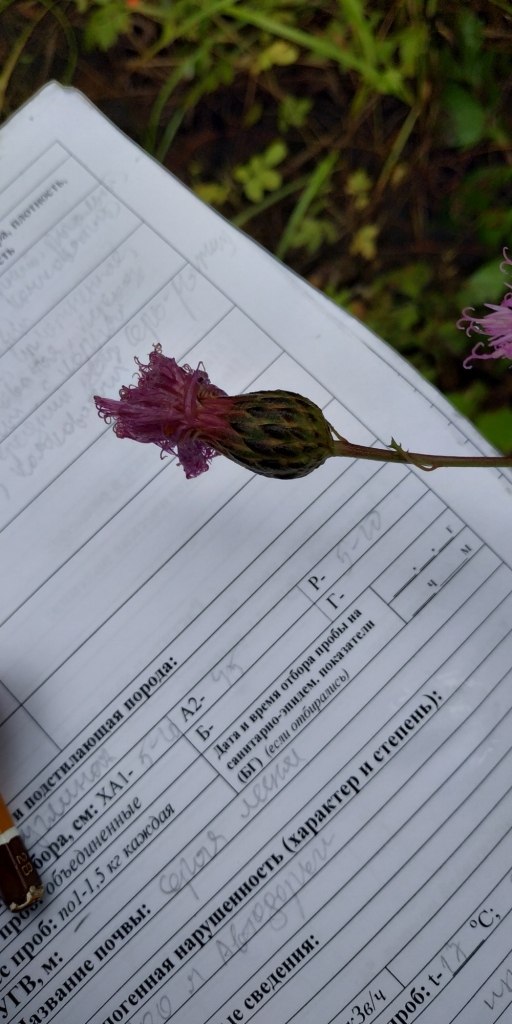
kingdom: Plantae
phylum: Tracheophyta
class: Magnoliopsida
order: Asterales
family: Asteraceae
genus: Serratula
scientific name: Serratula coronata
